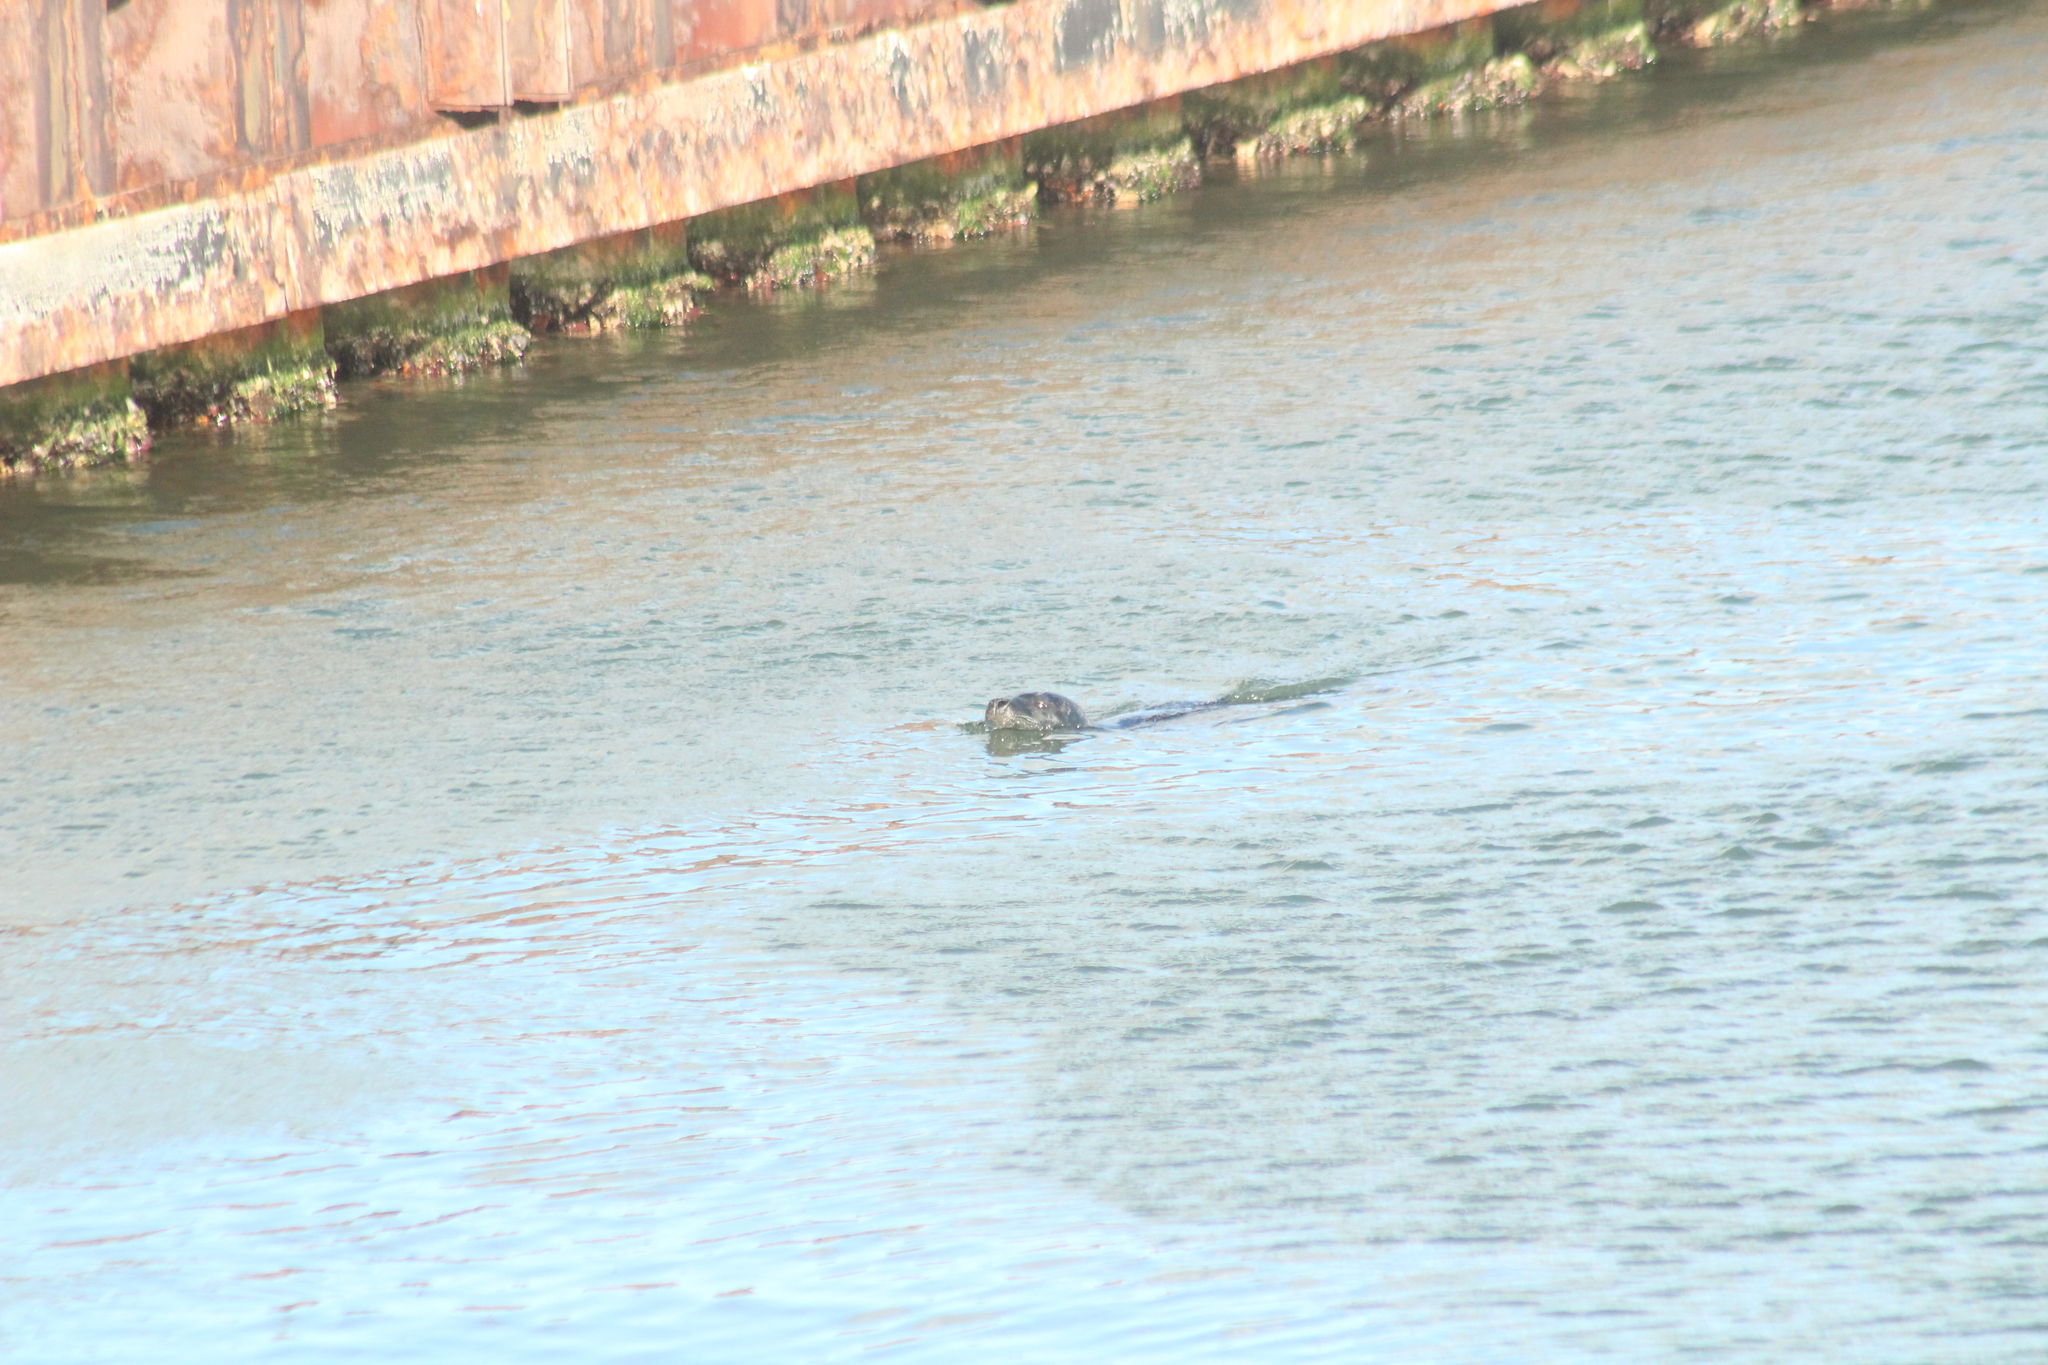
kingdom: Animalia
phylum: Chordata
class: Mammalia
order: Carnivora
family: Phocidae
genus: Phoca
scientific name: Phoca vitulina
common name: Harbor seal
